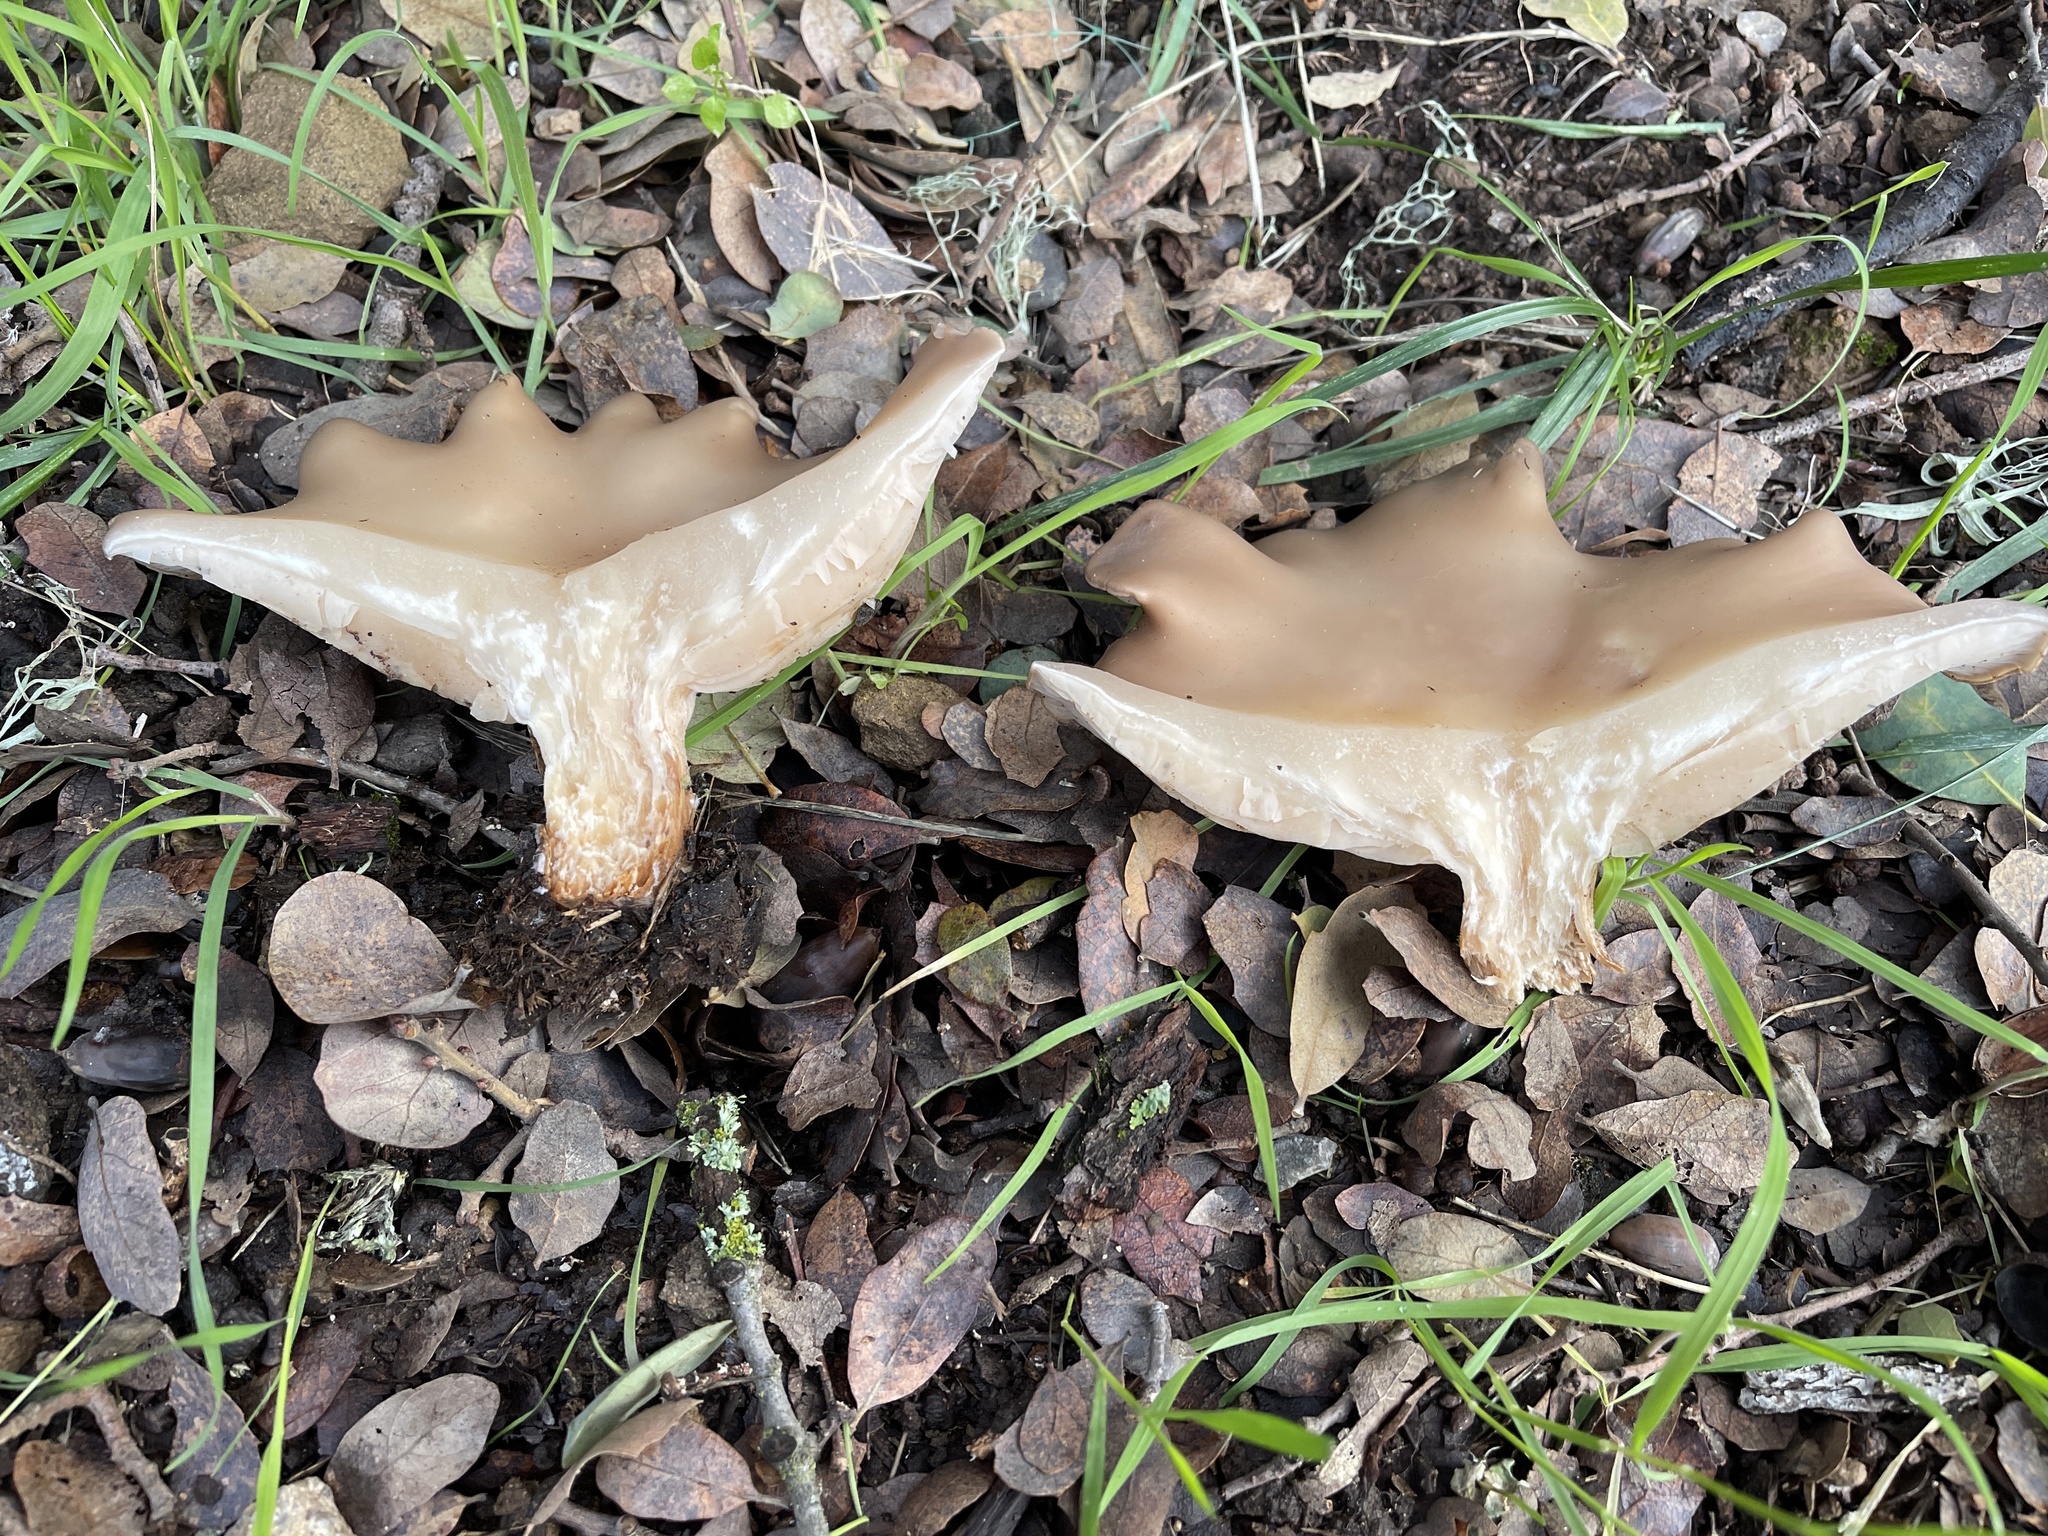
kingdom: Fungi
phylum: Basidiomycota
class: Agaricomycetes
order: Agaricales
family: Tricholomataceae
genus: Collybia
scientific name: Collybia
